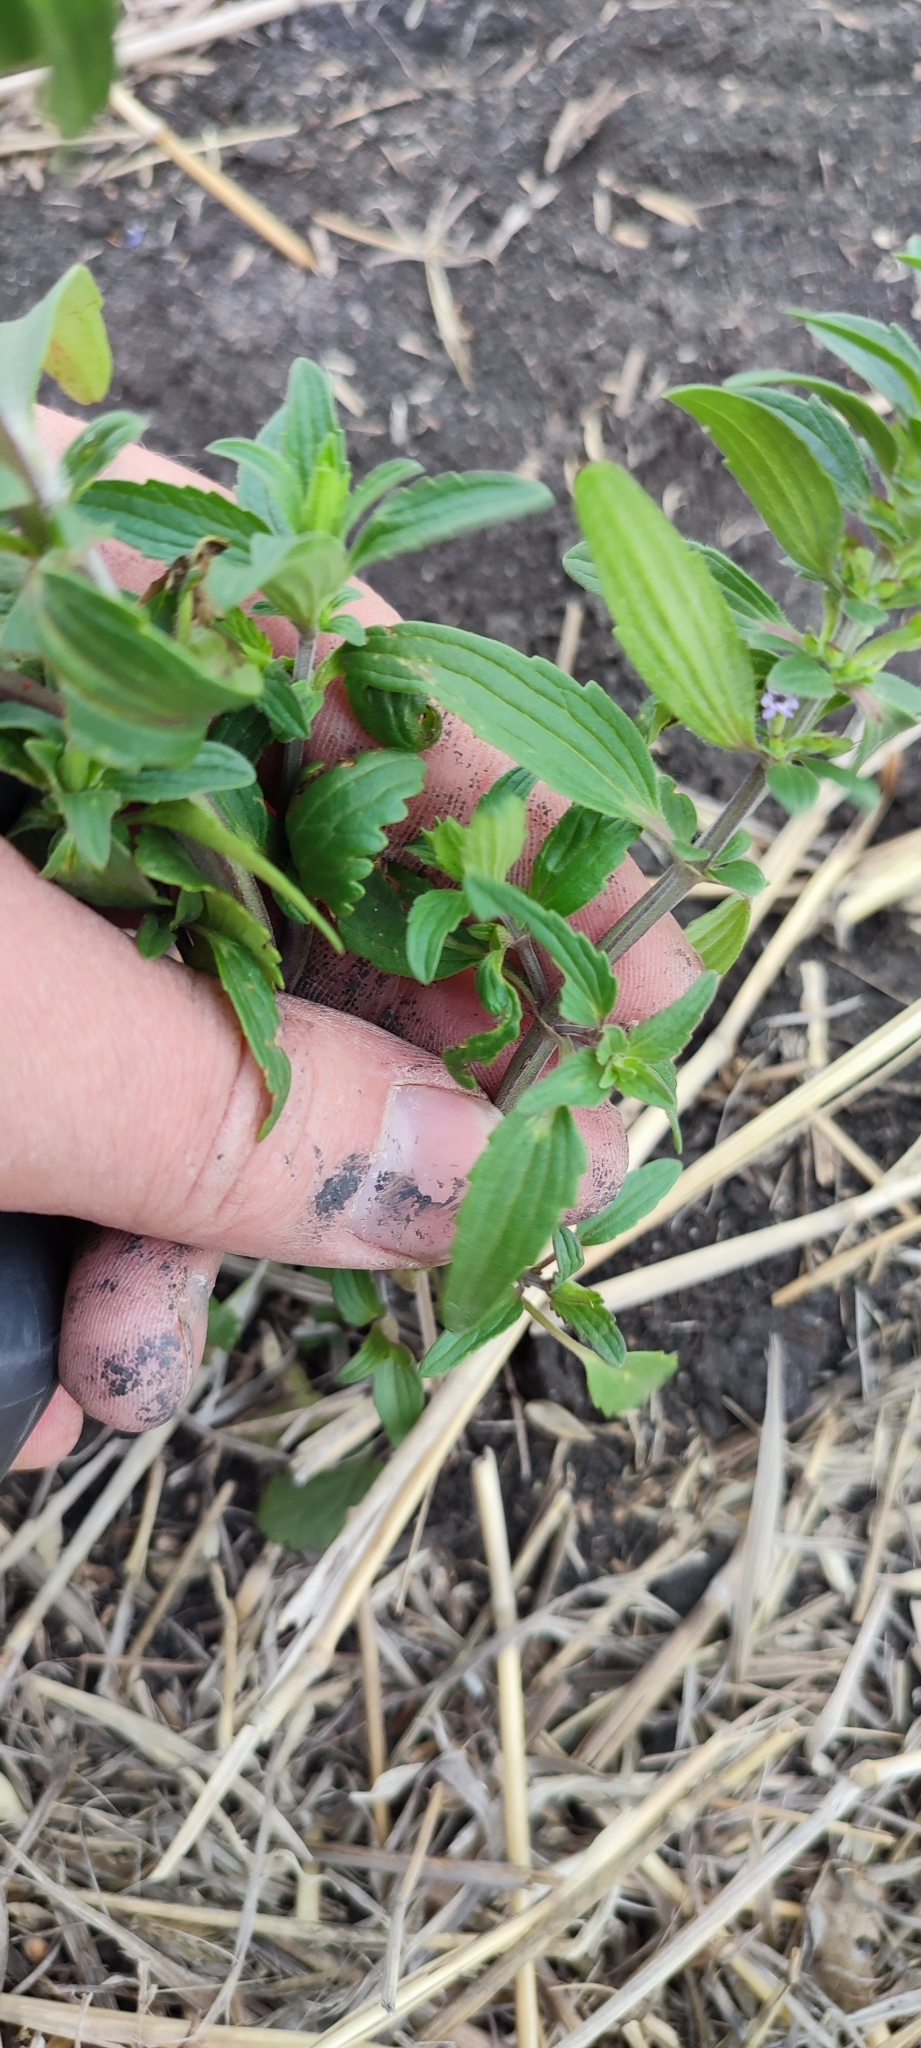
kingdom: Plantae
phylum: Tracheophyta
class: Magnoliopsida
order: Lamiales
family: Lamiaceae
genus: Dracocephalum
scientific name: Dracocephalum thymiflorum
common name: Thymeleaf dragonhead
